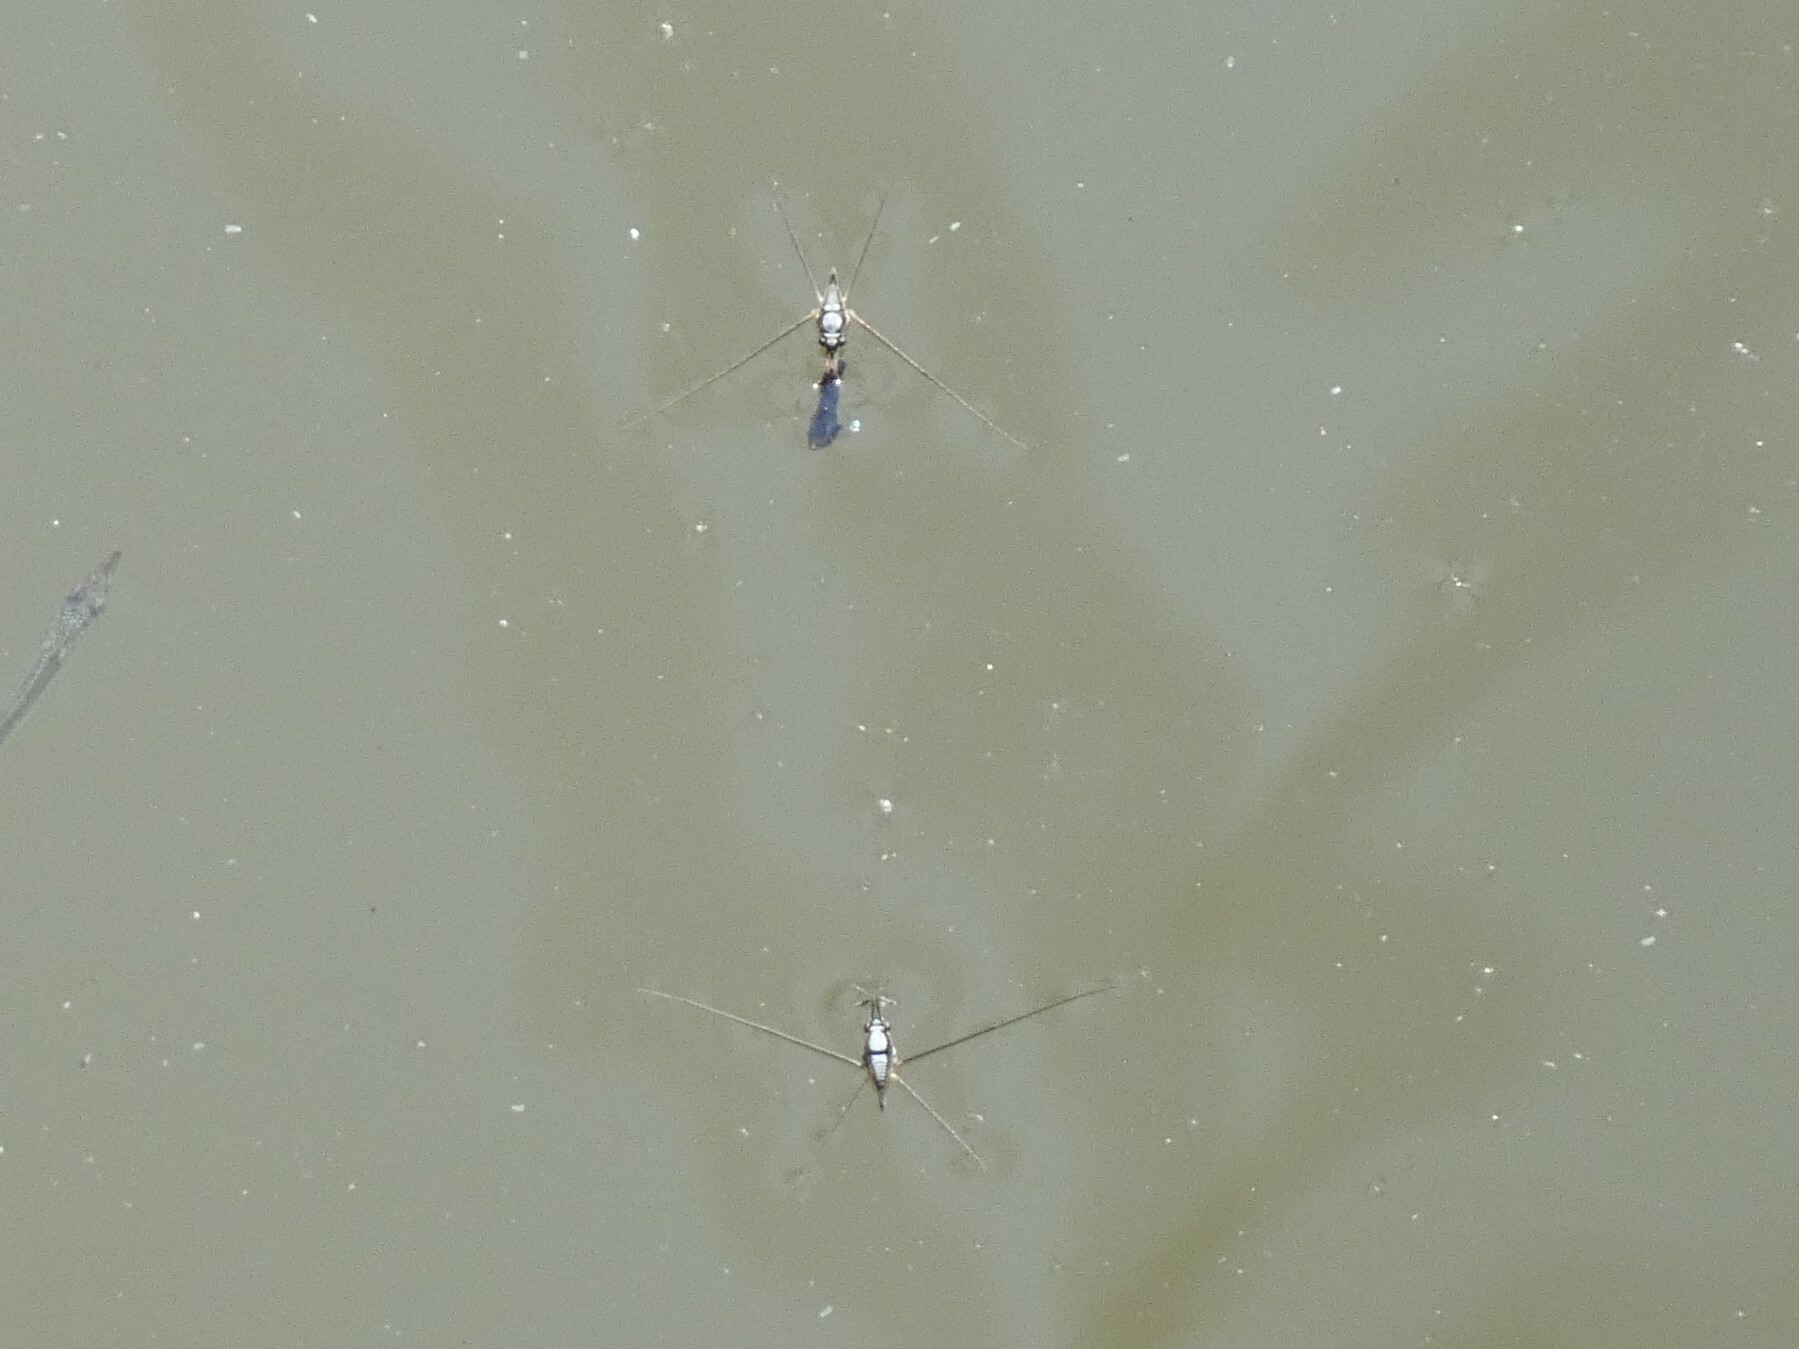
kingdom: Animalia
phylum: Arthropoda
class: Insecta
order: Hemiptera
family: Gerridae
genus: Rhagadotarsus
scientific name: Rhagadotarsus kraepelini
